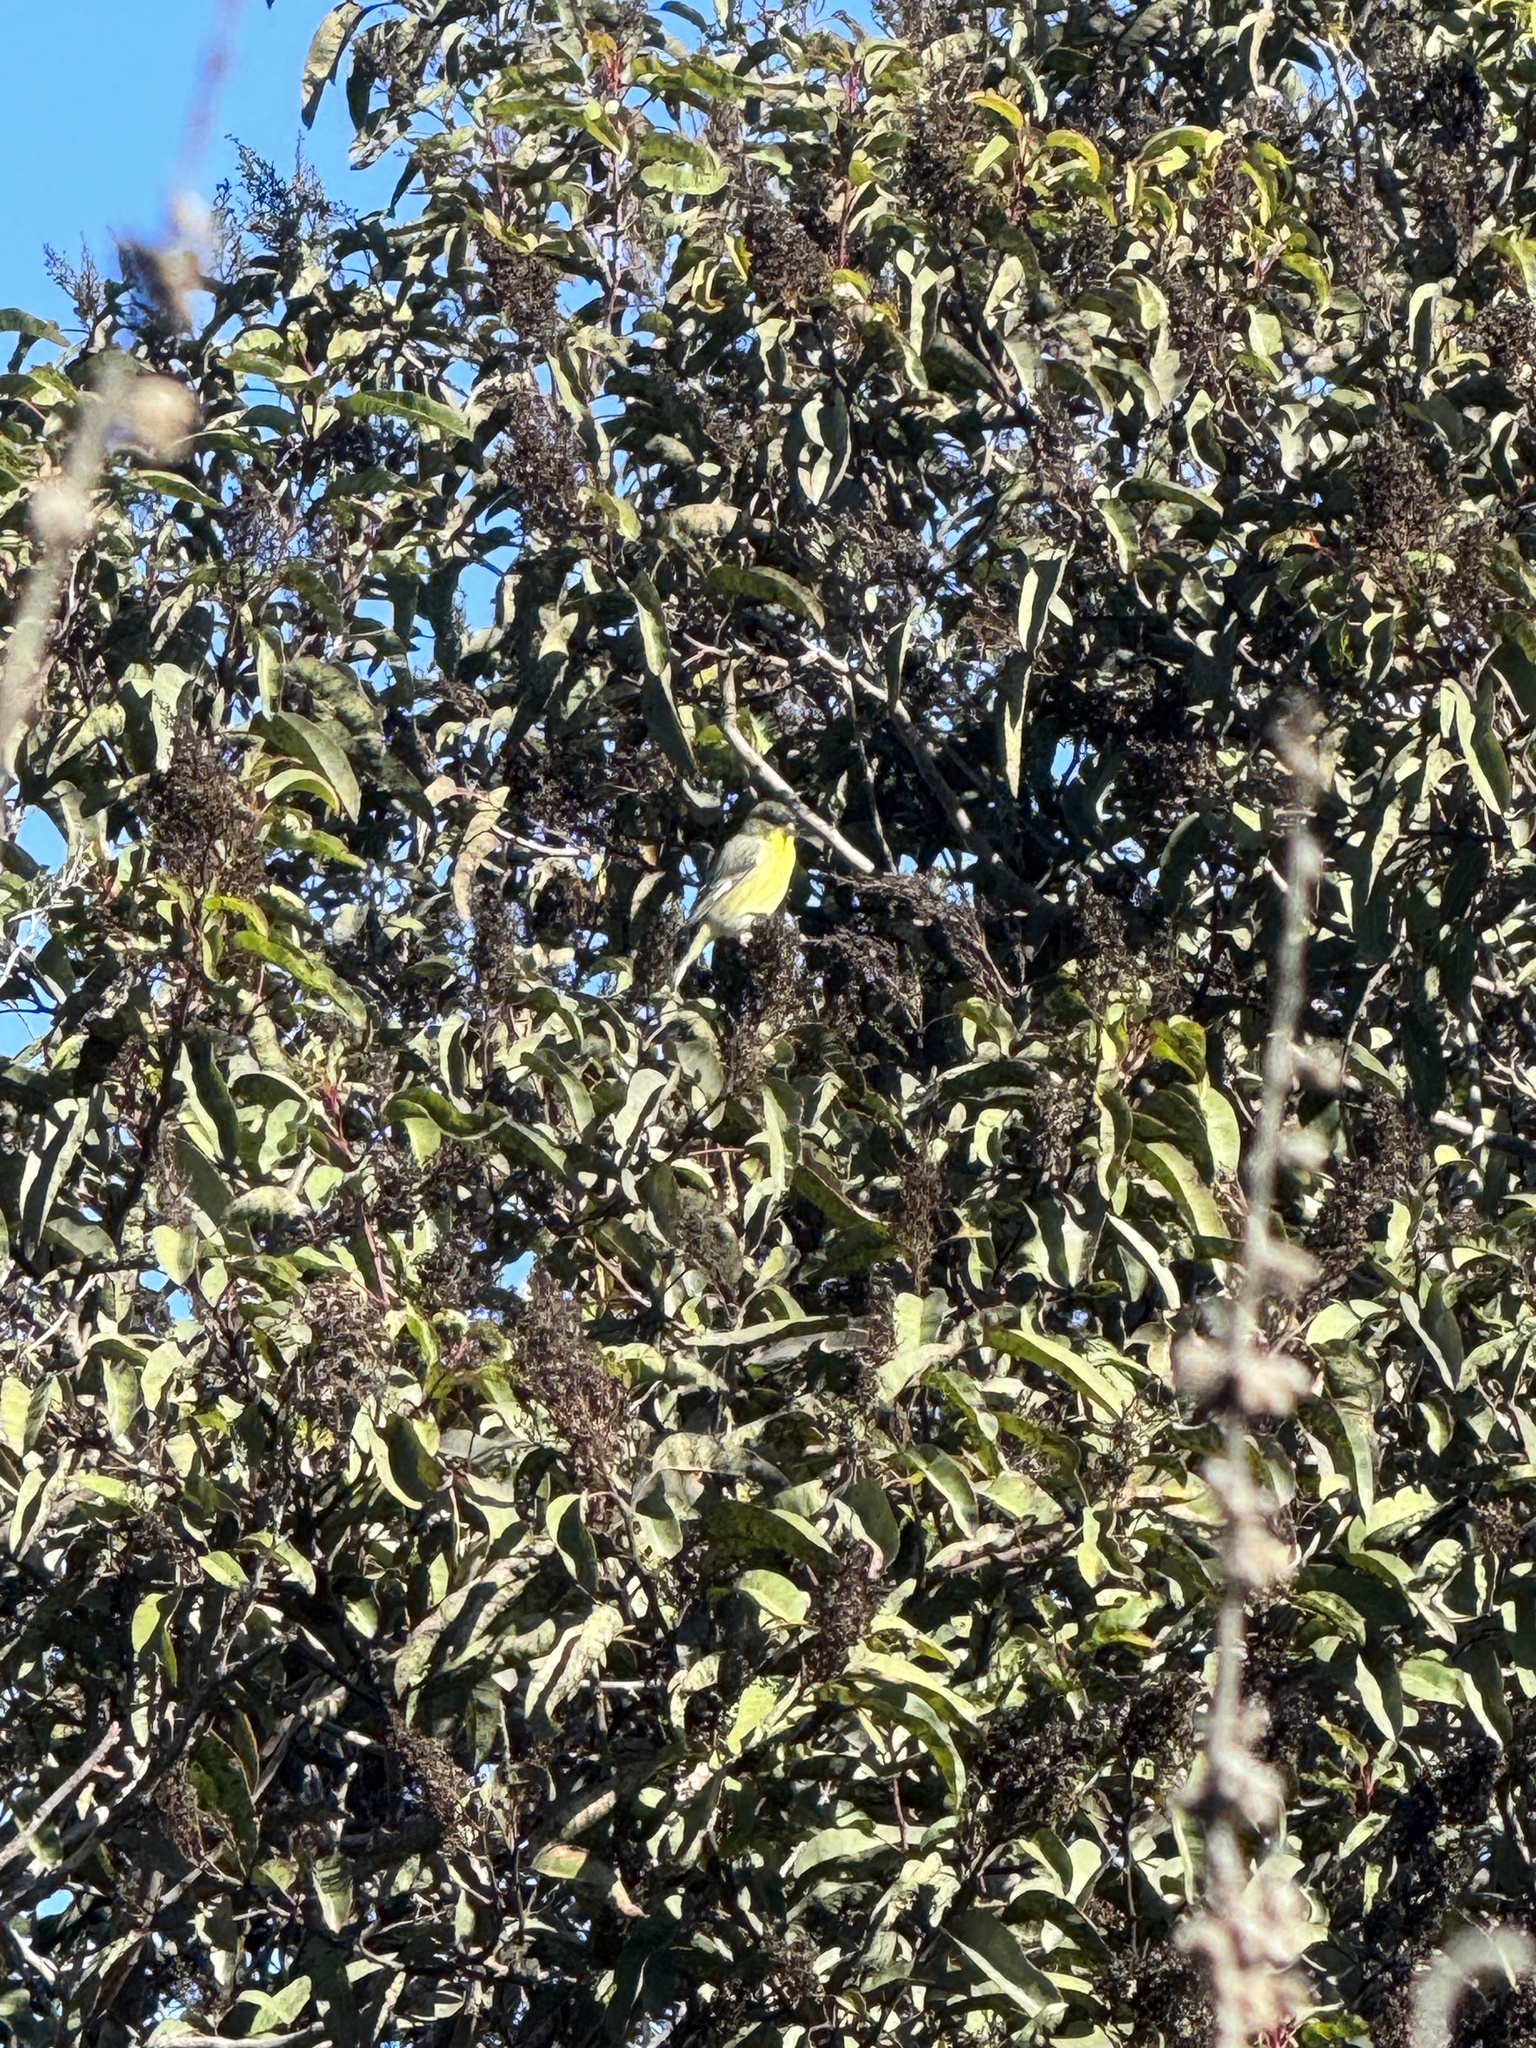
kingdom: Animalia
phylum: Chordata
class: Aves
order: Passeriformes
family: Fringillidae
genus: Spinus
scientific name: Spinus psaltria
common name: Lesser goldfinch
